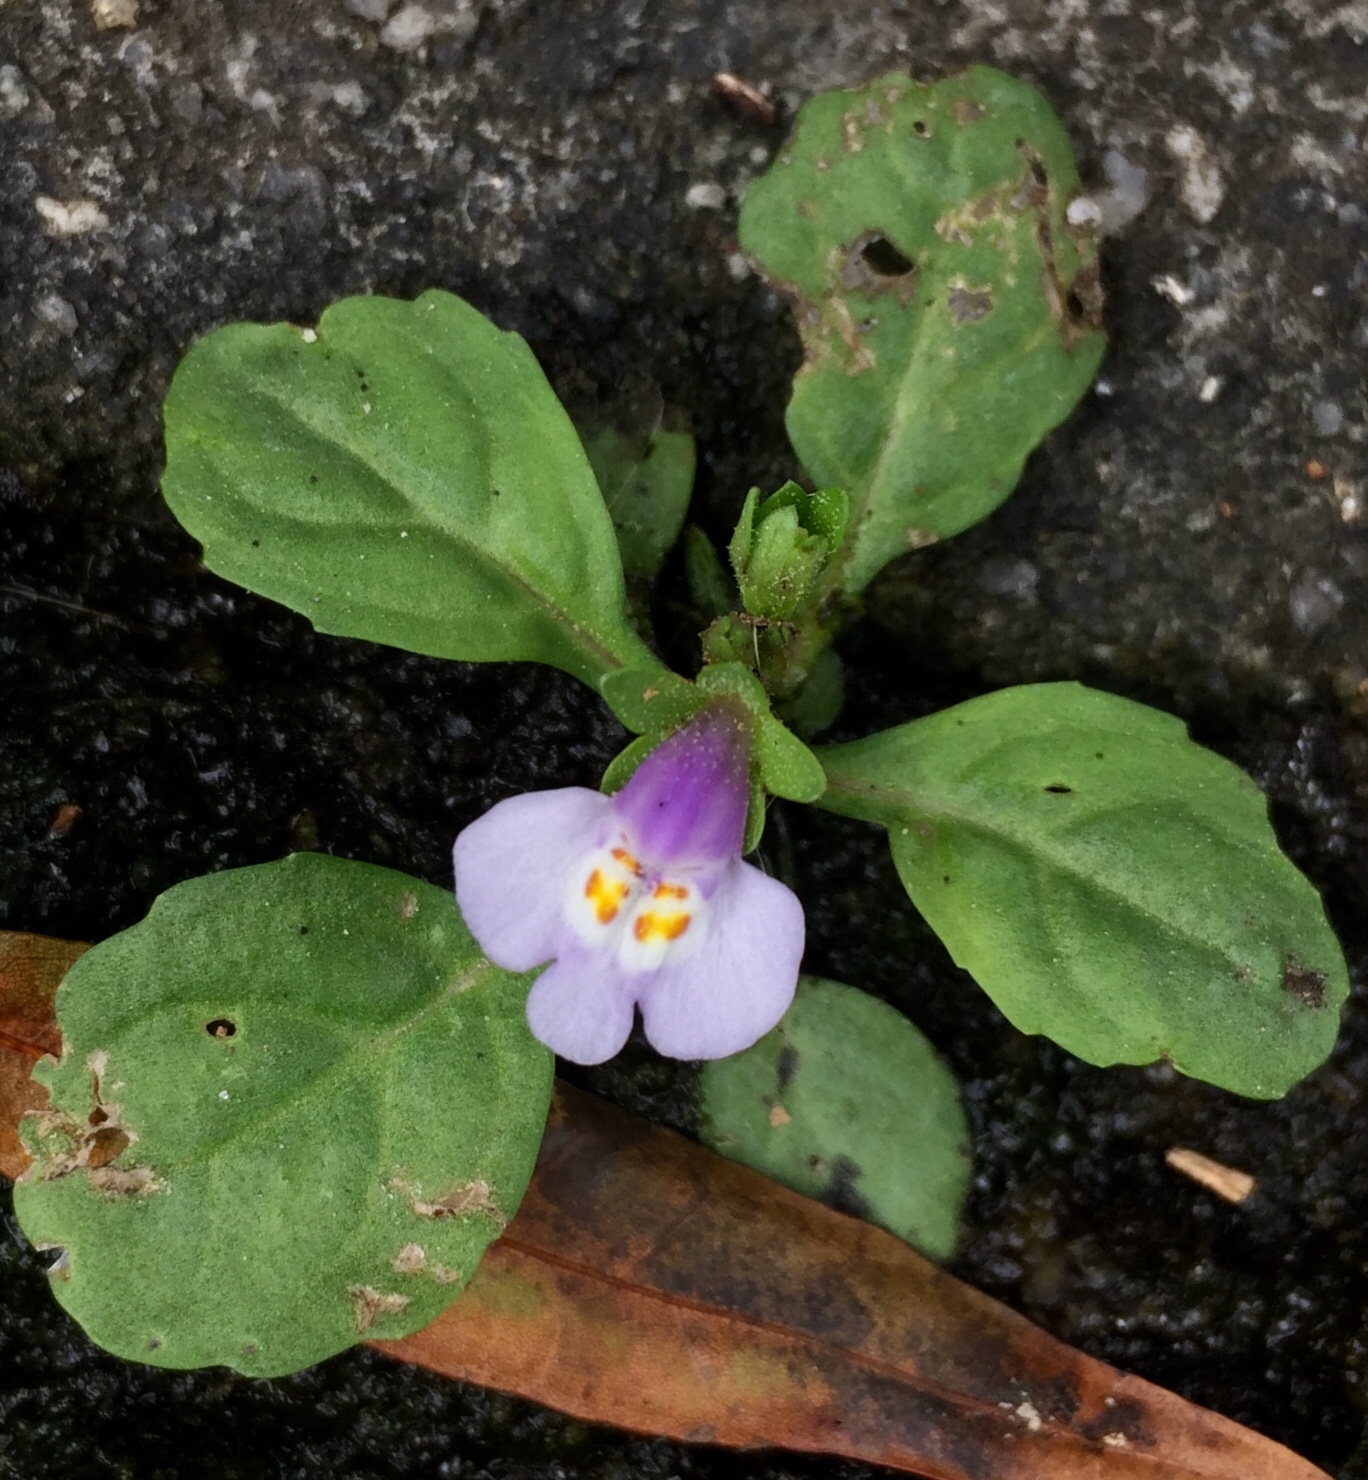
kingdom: Plantae
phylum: Tracheophyta
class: Magnoliopsida
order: Lamiales
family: Mazaceae
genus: Mazus
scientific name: Mazus pumilus
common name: Japanese mazus
